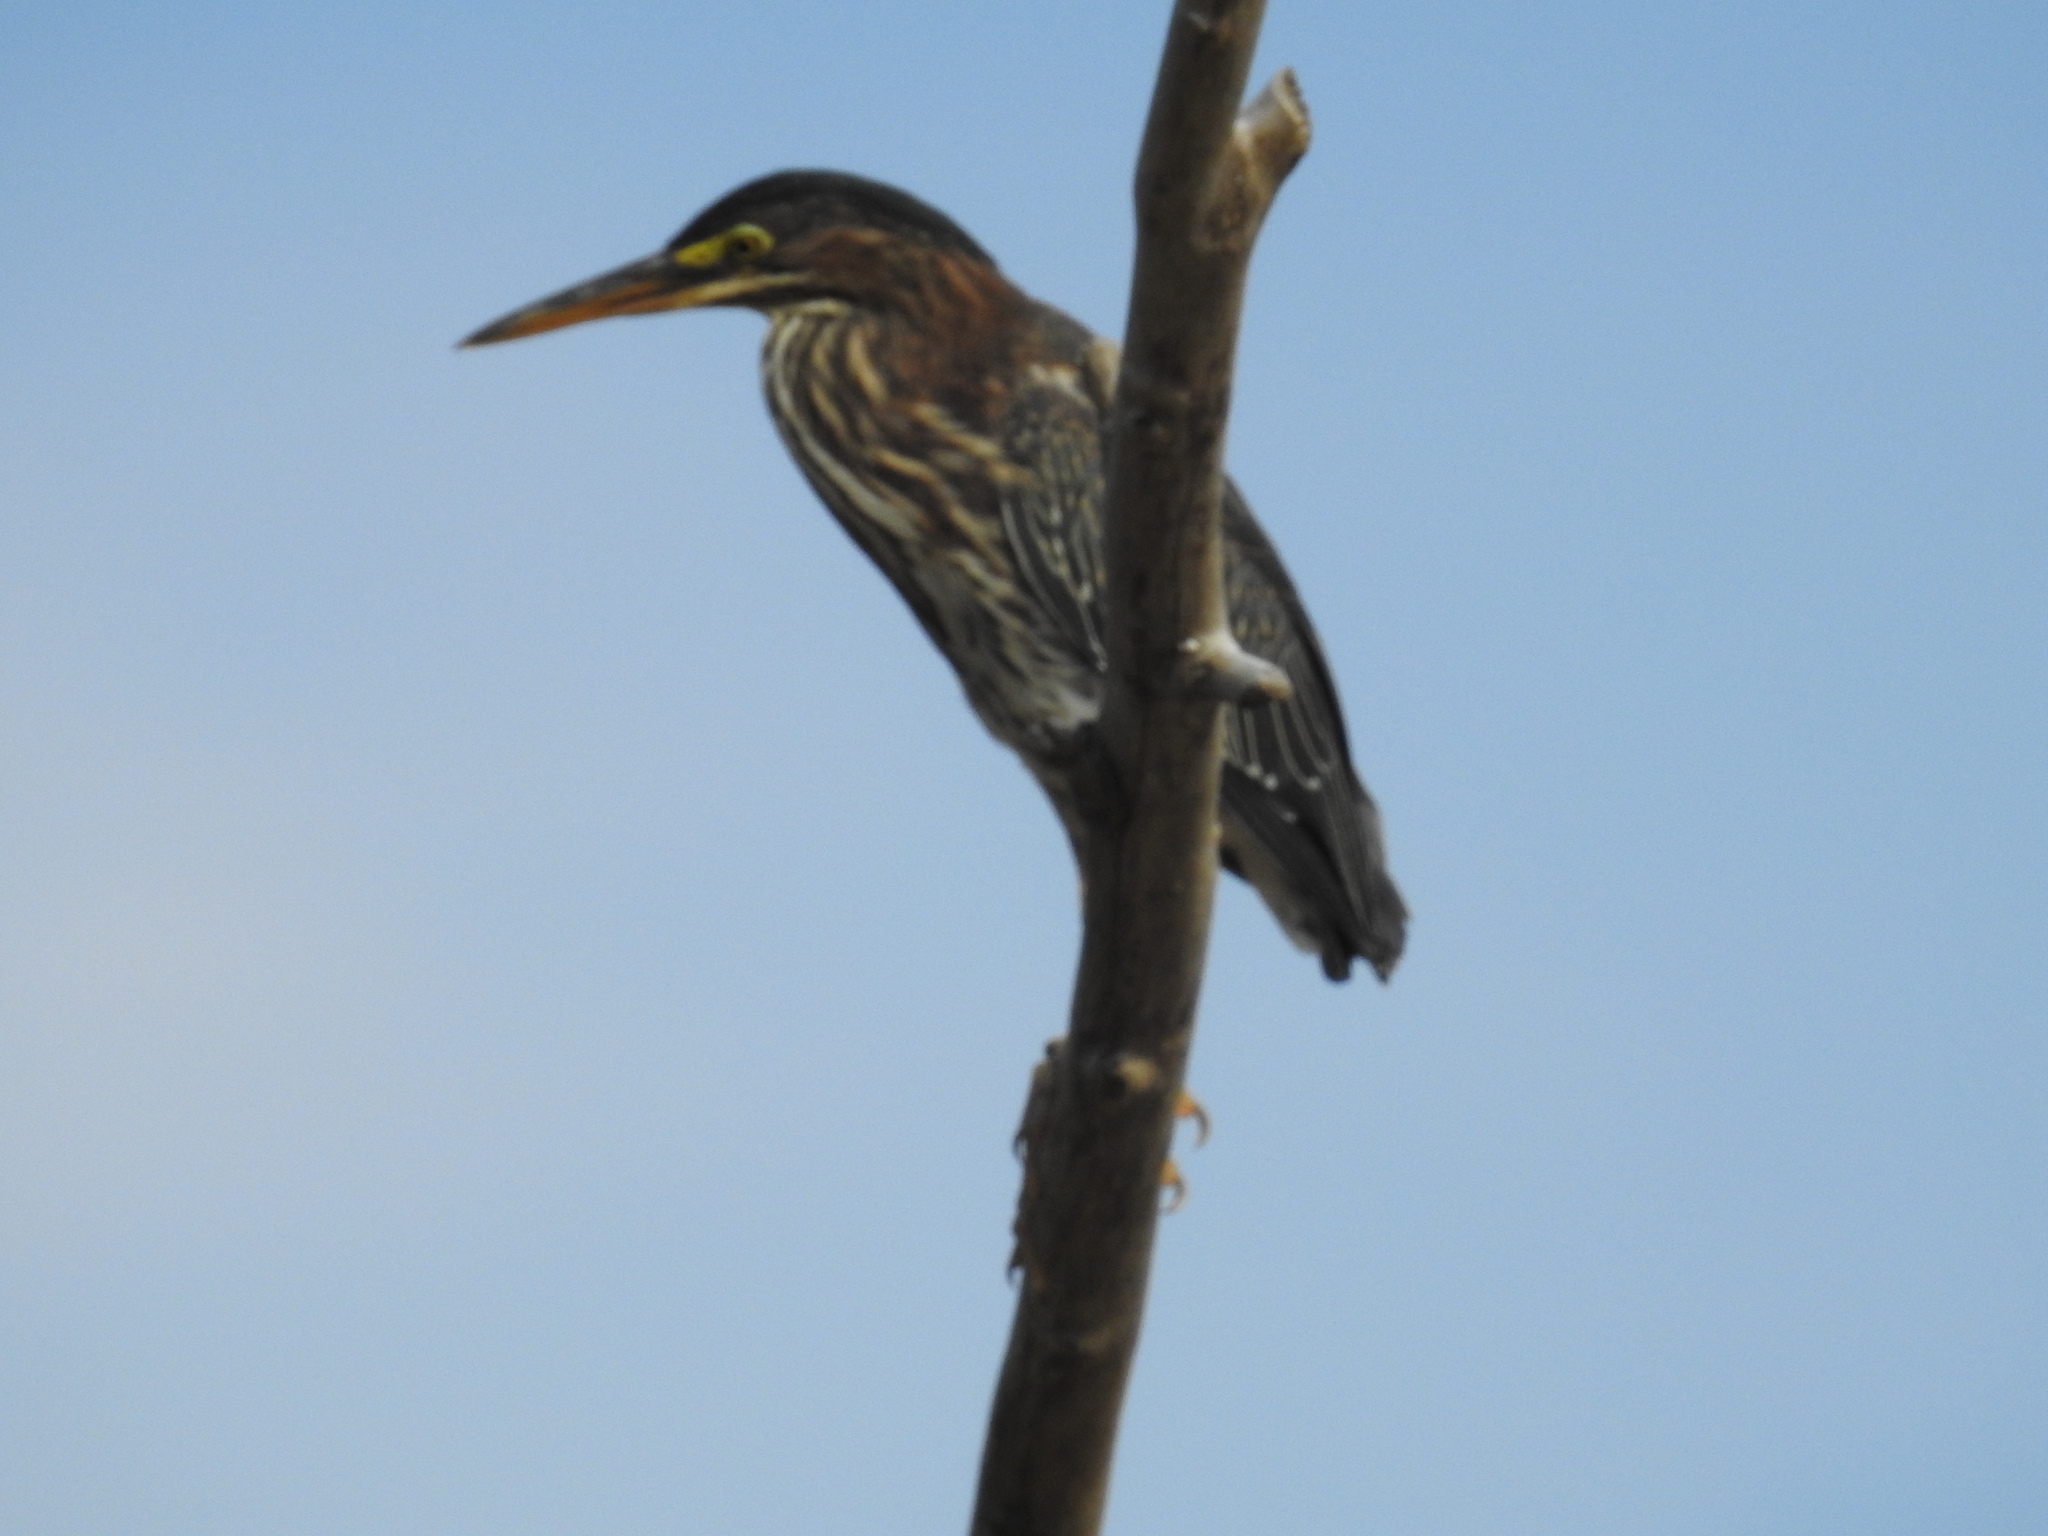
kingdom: Animalia
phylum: Chordata
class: Aves
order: Pelecaniformes
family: Ardeidae
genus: Butorides
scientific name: Butorides virescens
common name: Green heron
